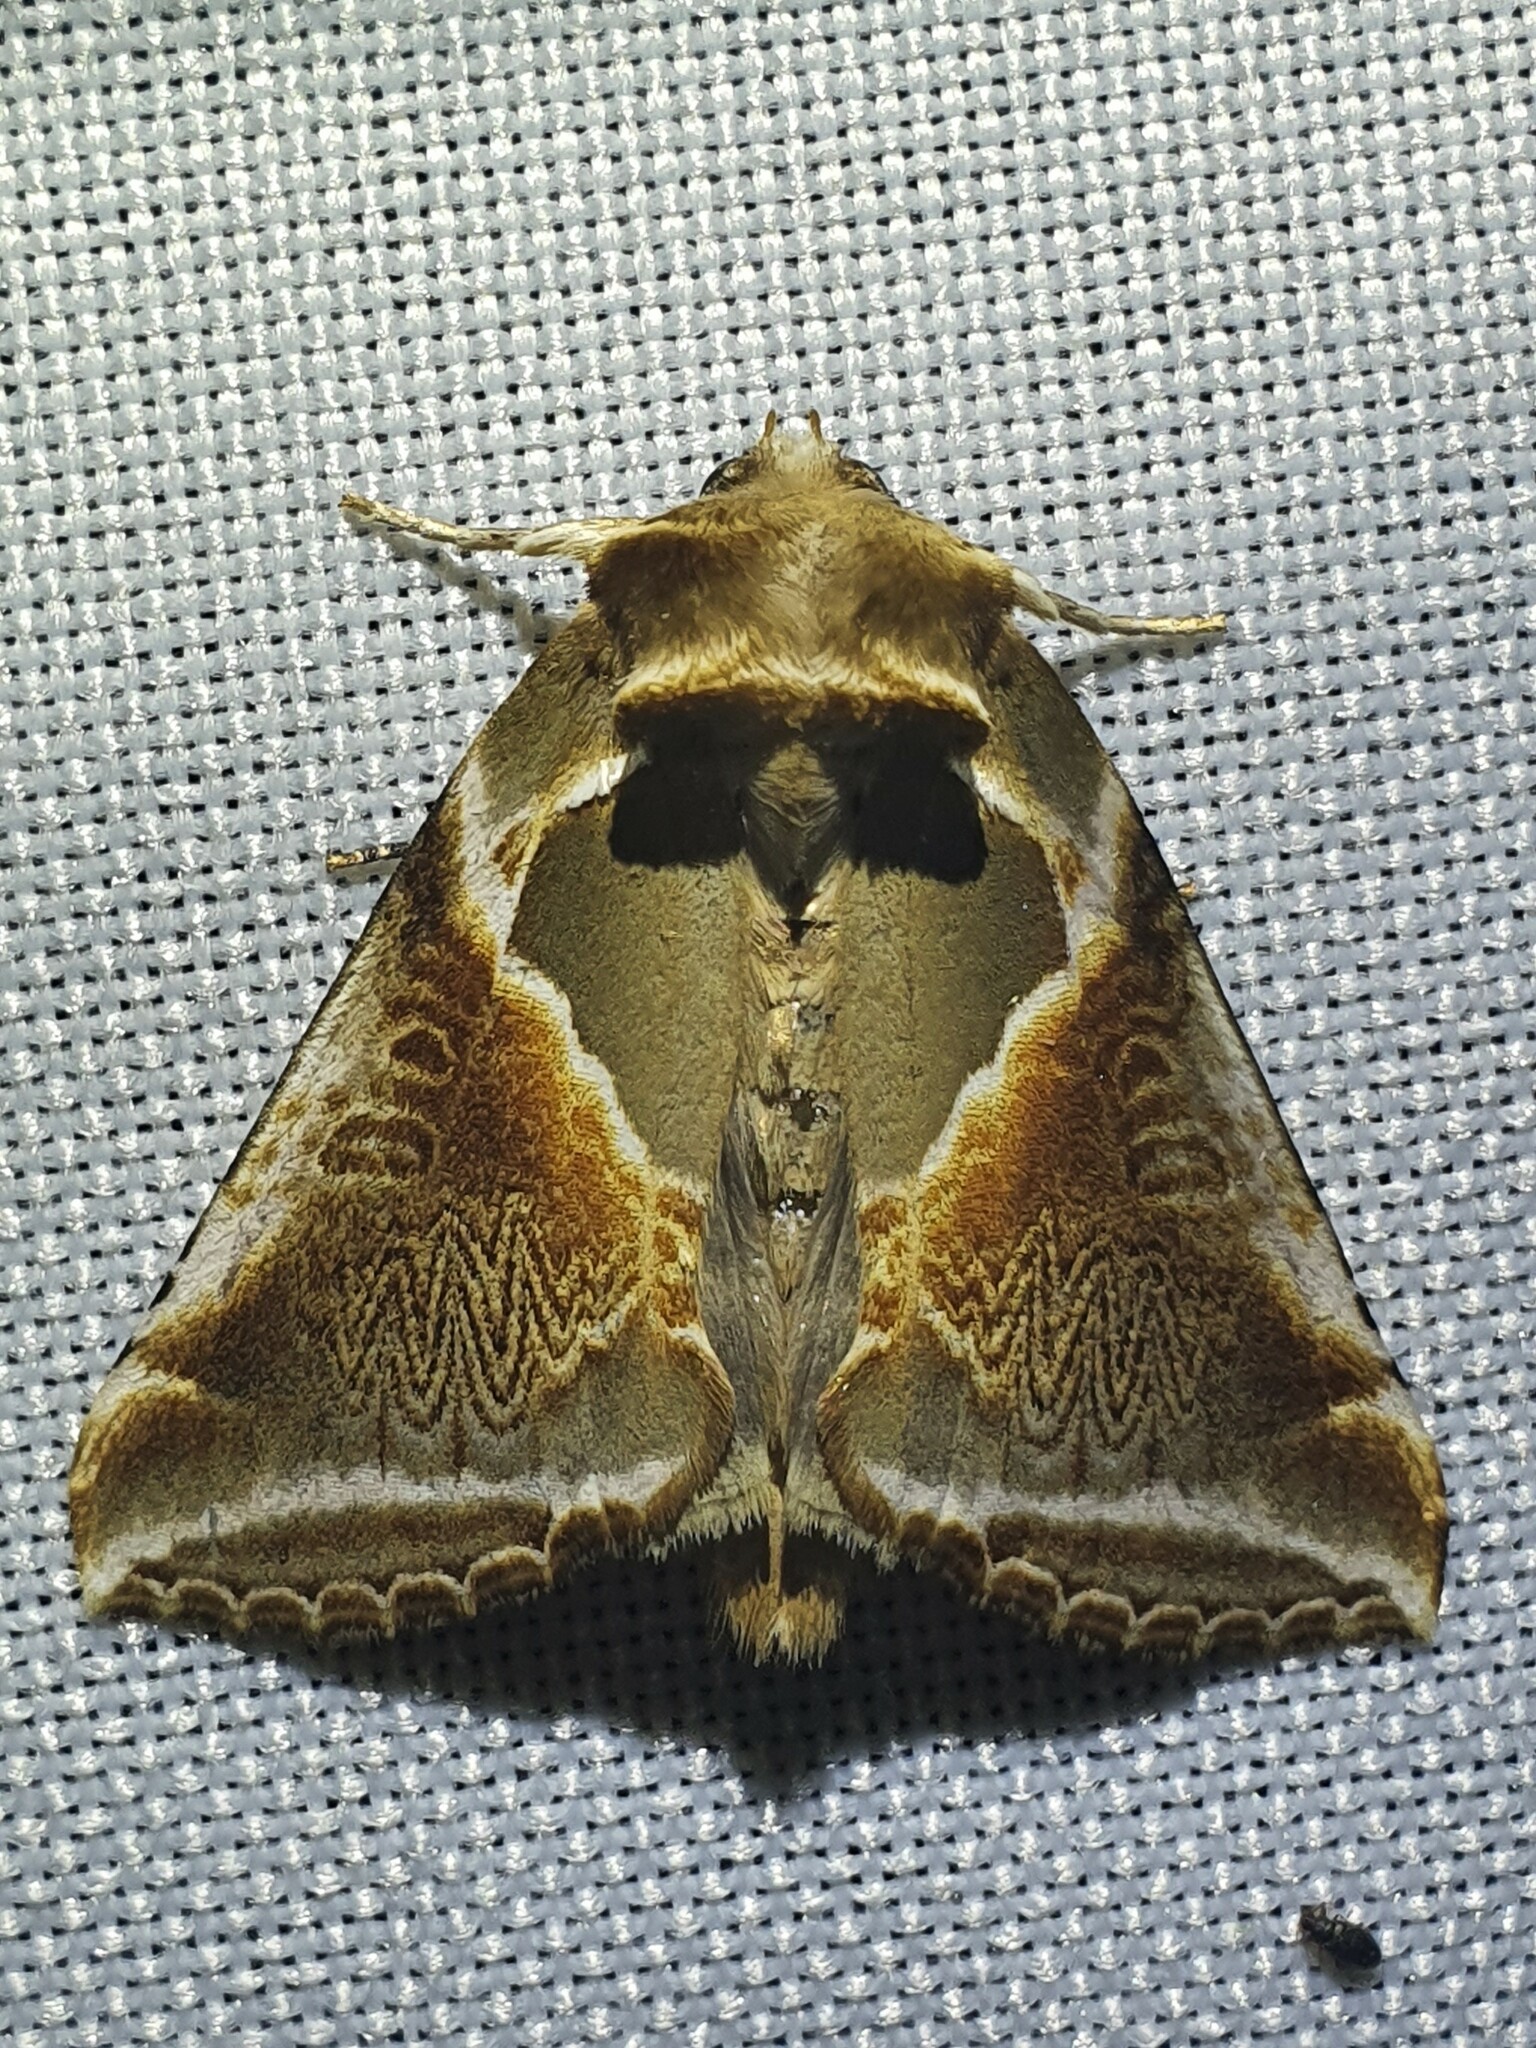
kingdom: Animalia
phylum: Arthropoda
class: Insecta
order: Lepidoptera
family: Drepanidae
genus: Habrosyne
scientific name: Habrosyne pyritoides
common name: Buff arches
